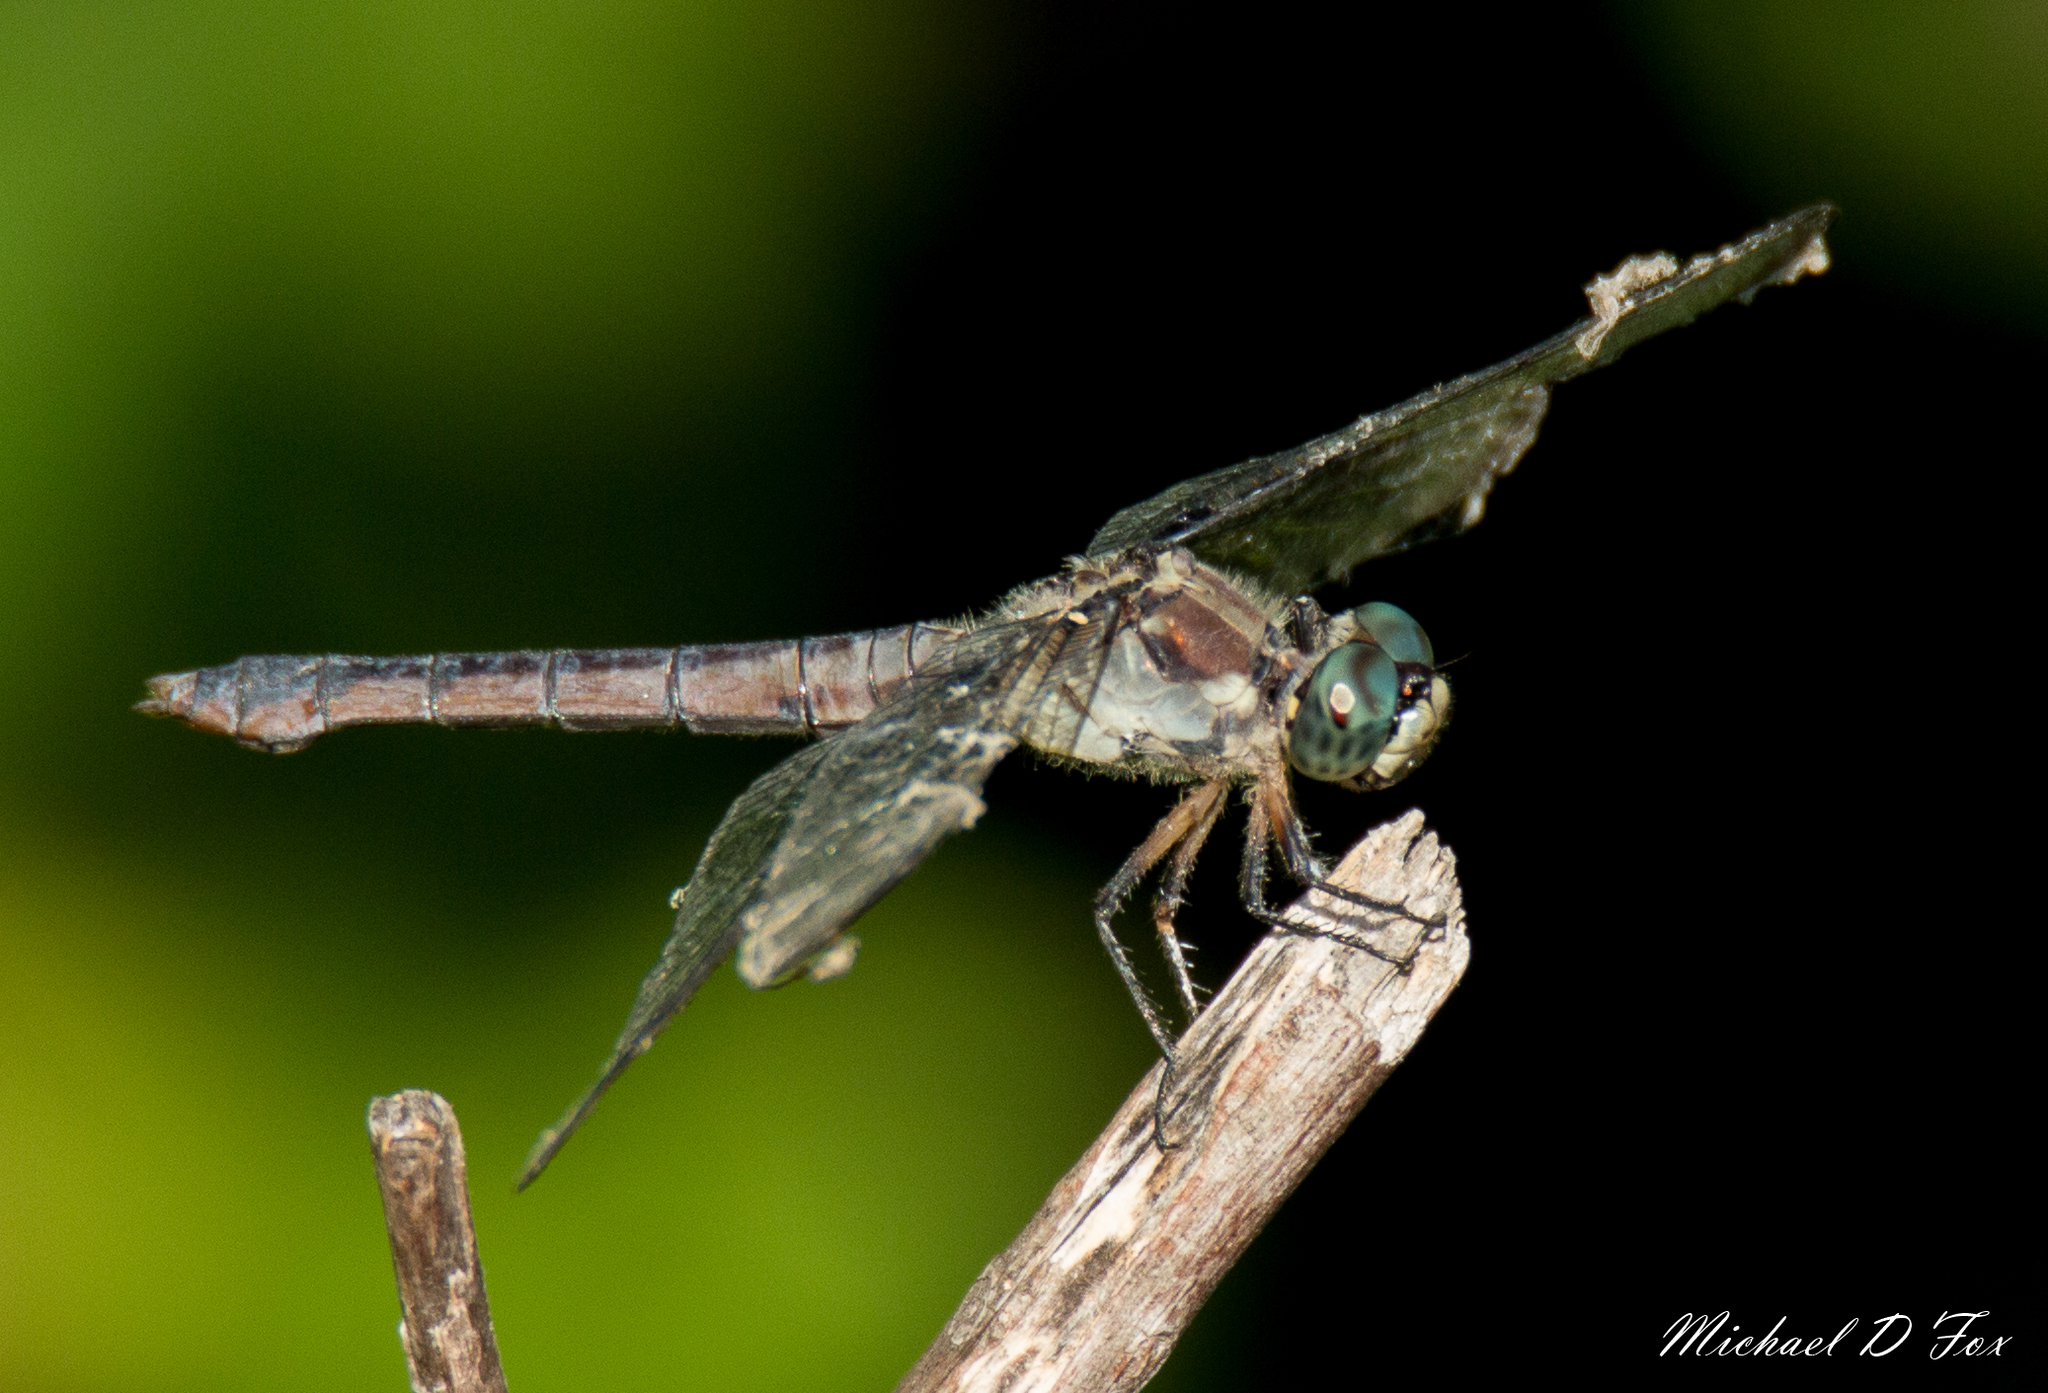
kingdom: Animalia
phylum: Arthropoda
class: Insecta
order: Odonata
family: Libellulidae
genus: Libellula
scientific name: Libellula vibrans
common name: Great blue skimmer
